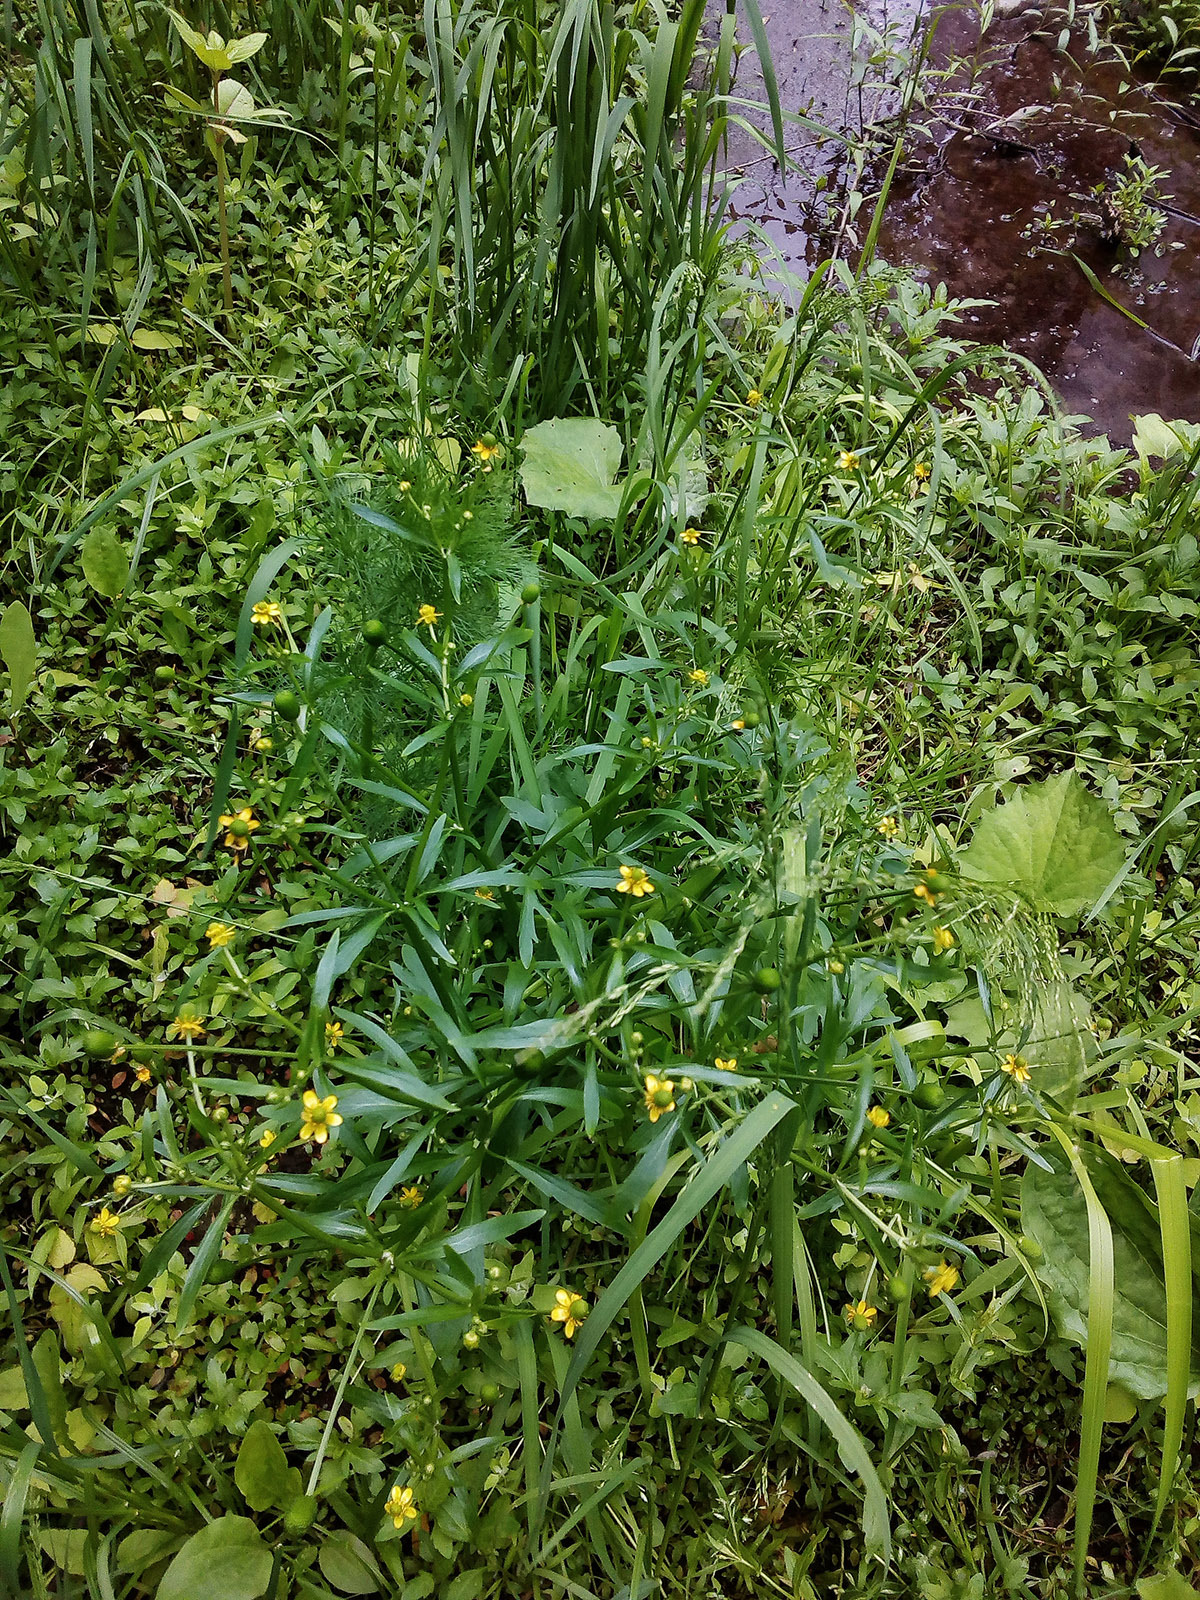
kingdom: Plantae
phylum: Tracheophyta
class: Magnoliopsida
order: Ranunculales
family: Ranunculaceae
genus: Ranunculus
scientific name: Ranunculus sceleratus
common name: Celery-leaved buttercup
